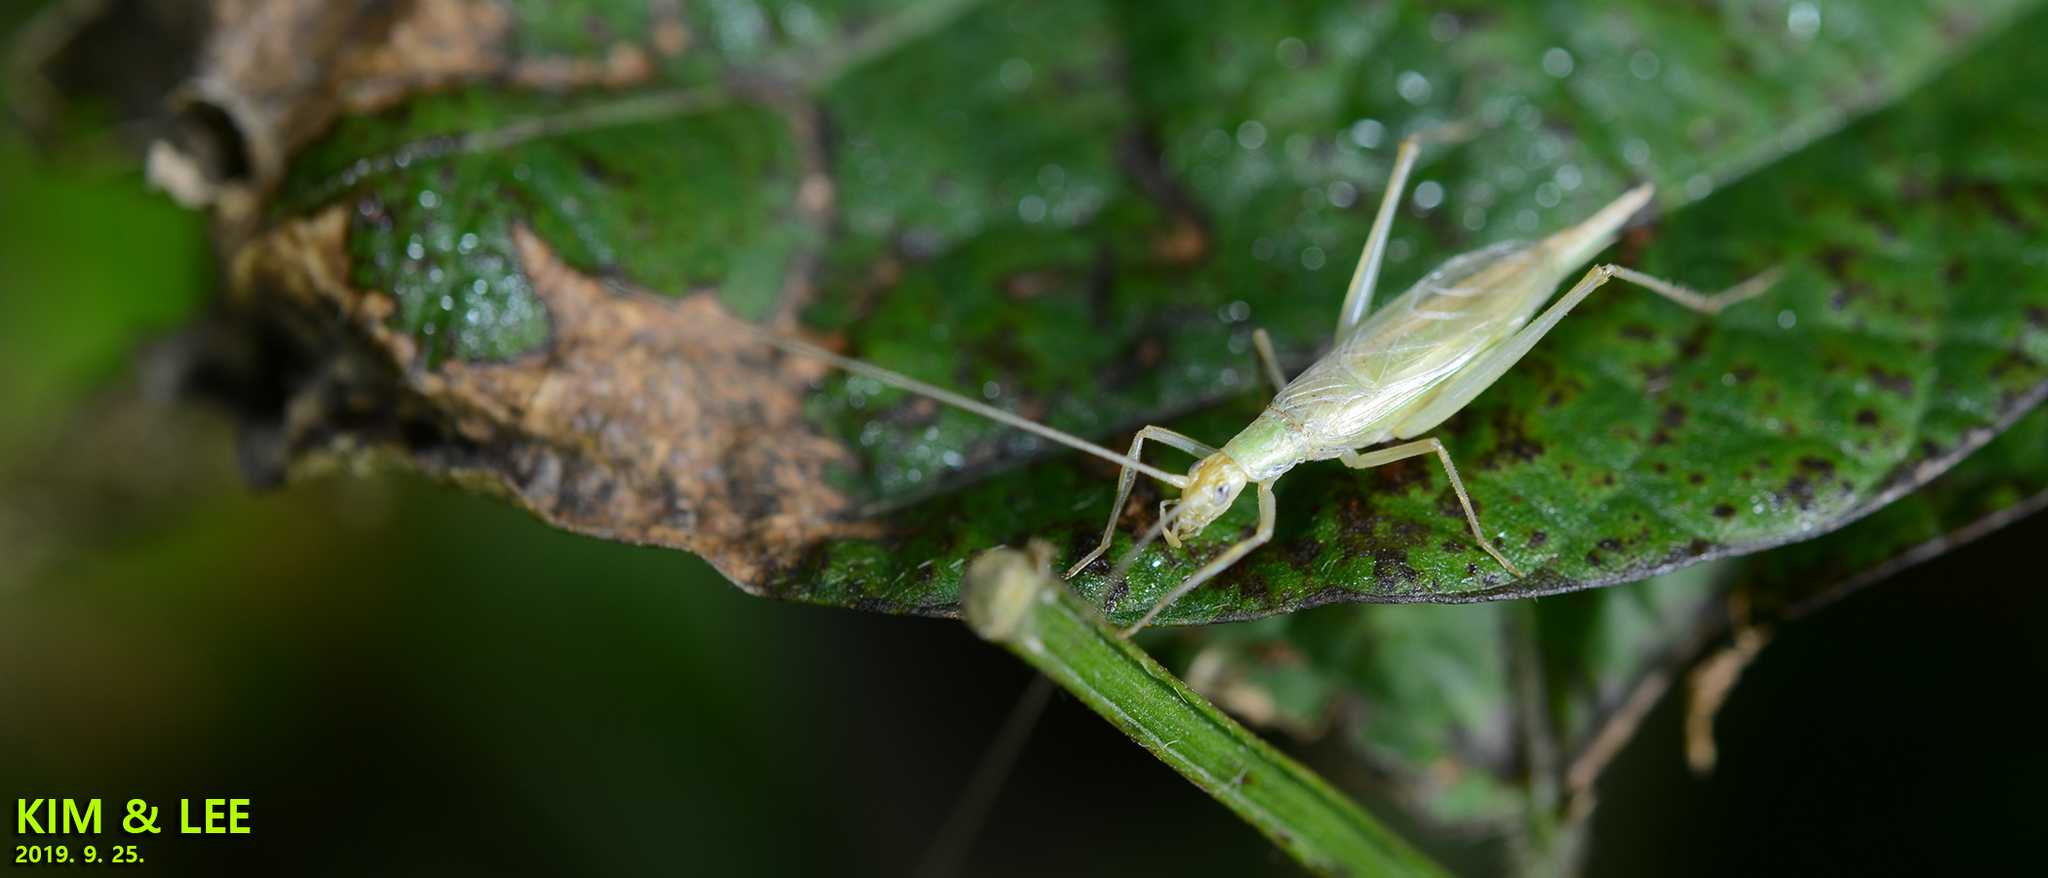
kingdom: Animalia
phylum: Arthropoda
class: Insecta
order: Orthoptera
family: Gryllidae
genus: Oecanthus
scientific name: Oecanthus longicauda
